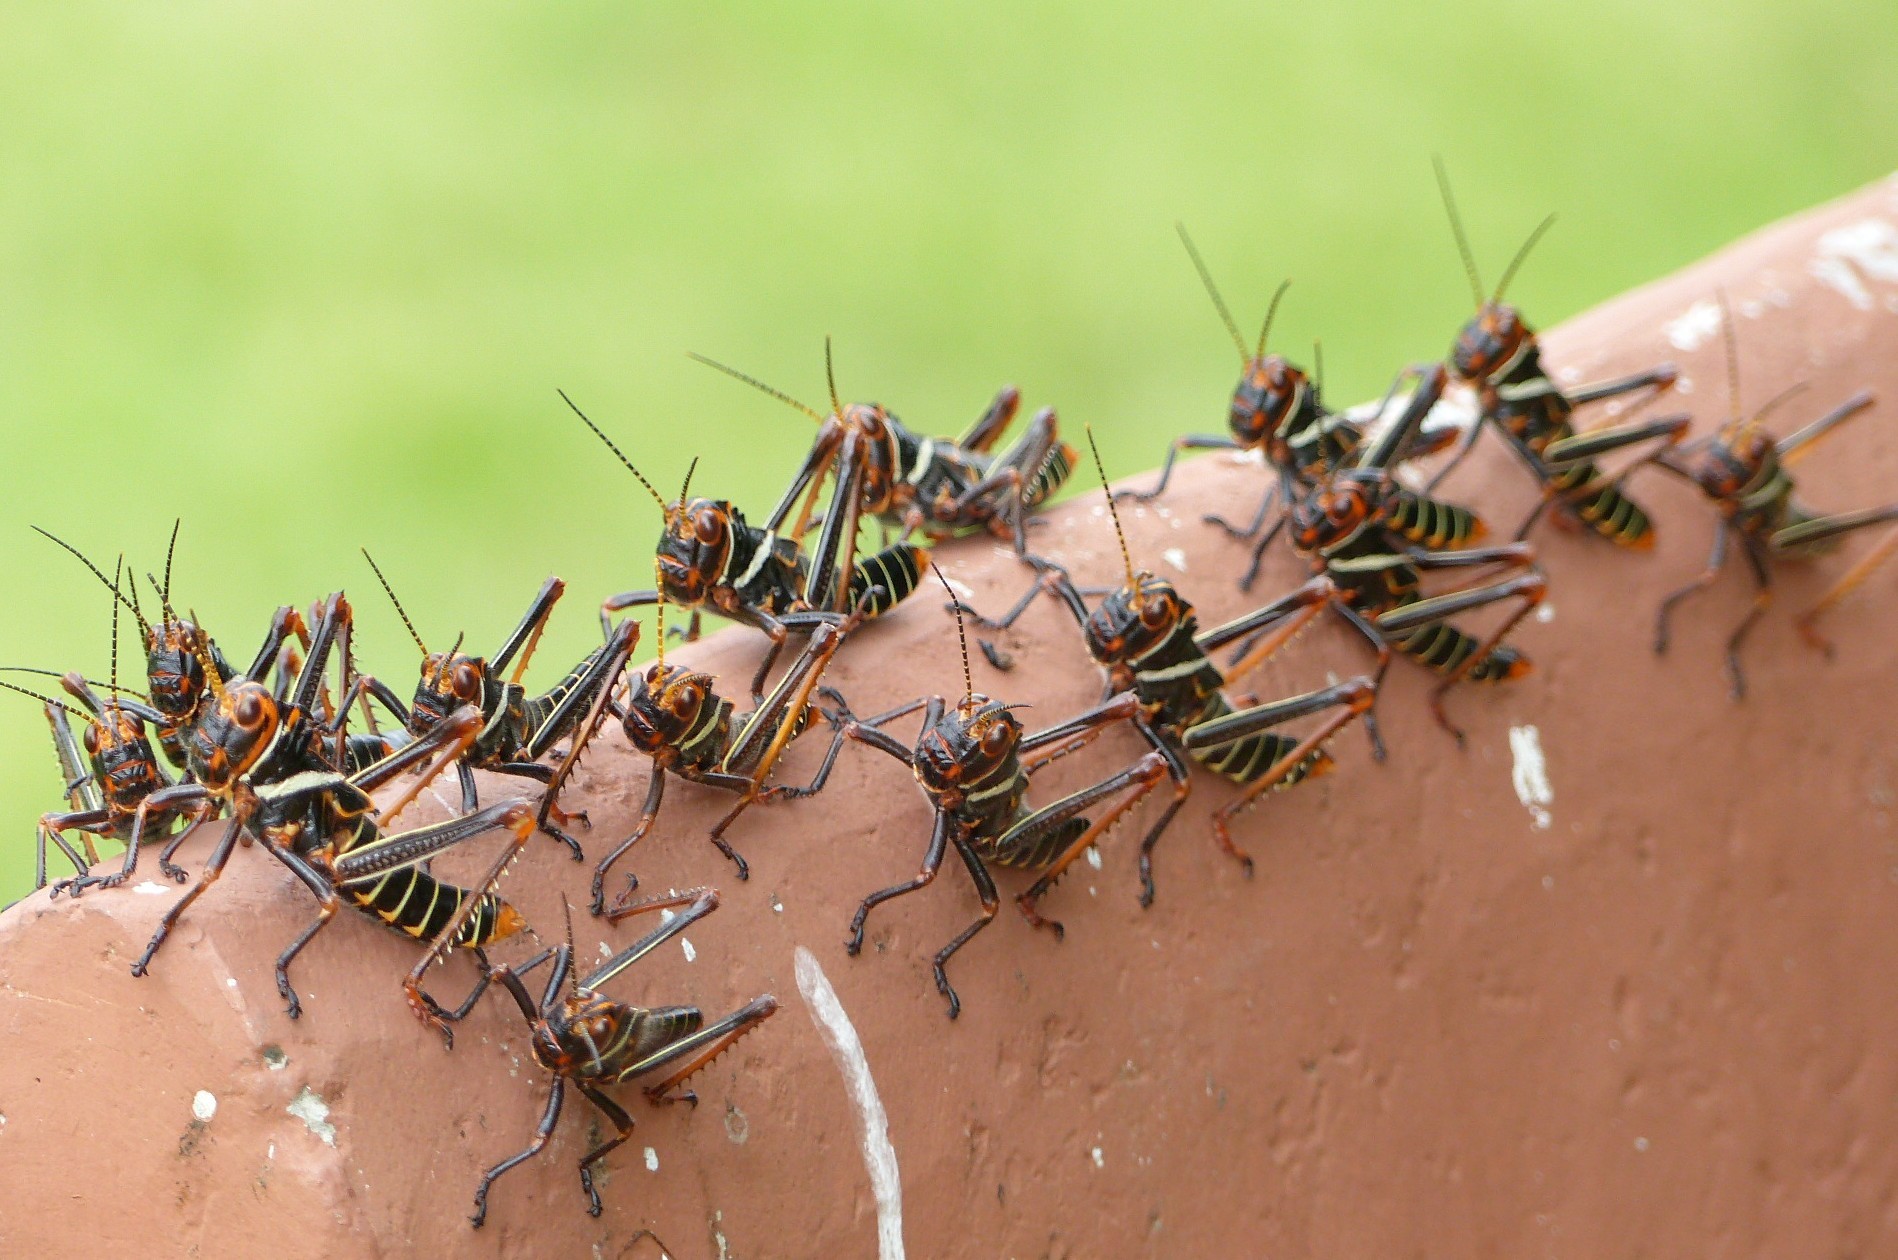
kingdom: Animalia
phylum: Arthropoda
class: Insecta
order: Orthoptera
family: Romaleidae
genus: Tropidacris
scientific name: Tropidacris collaris
